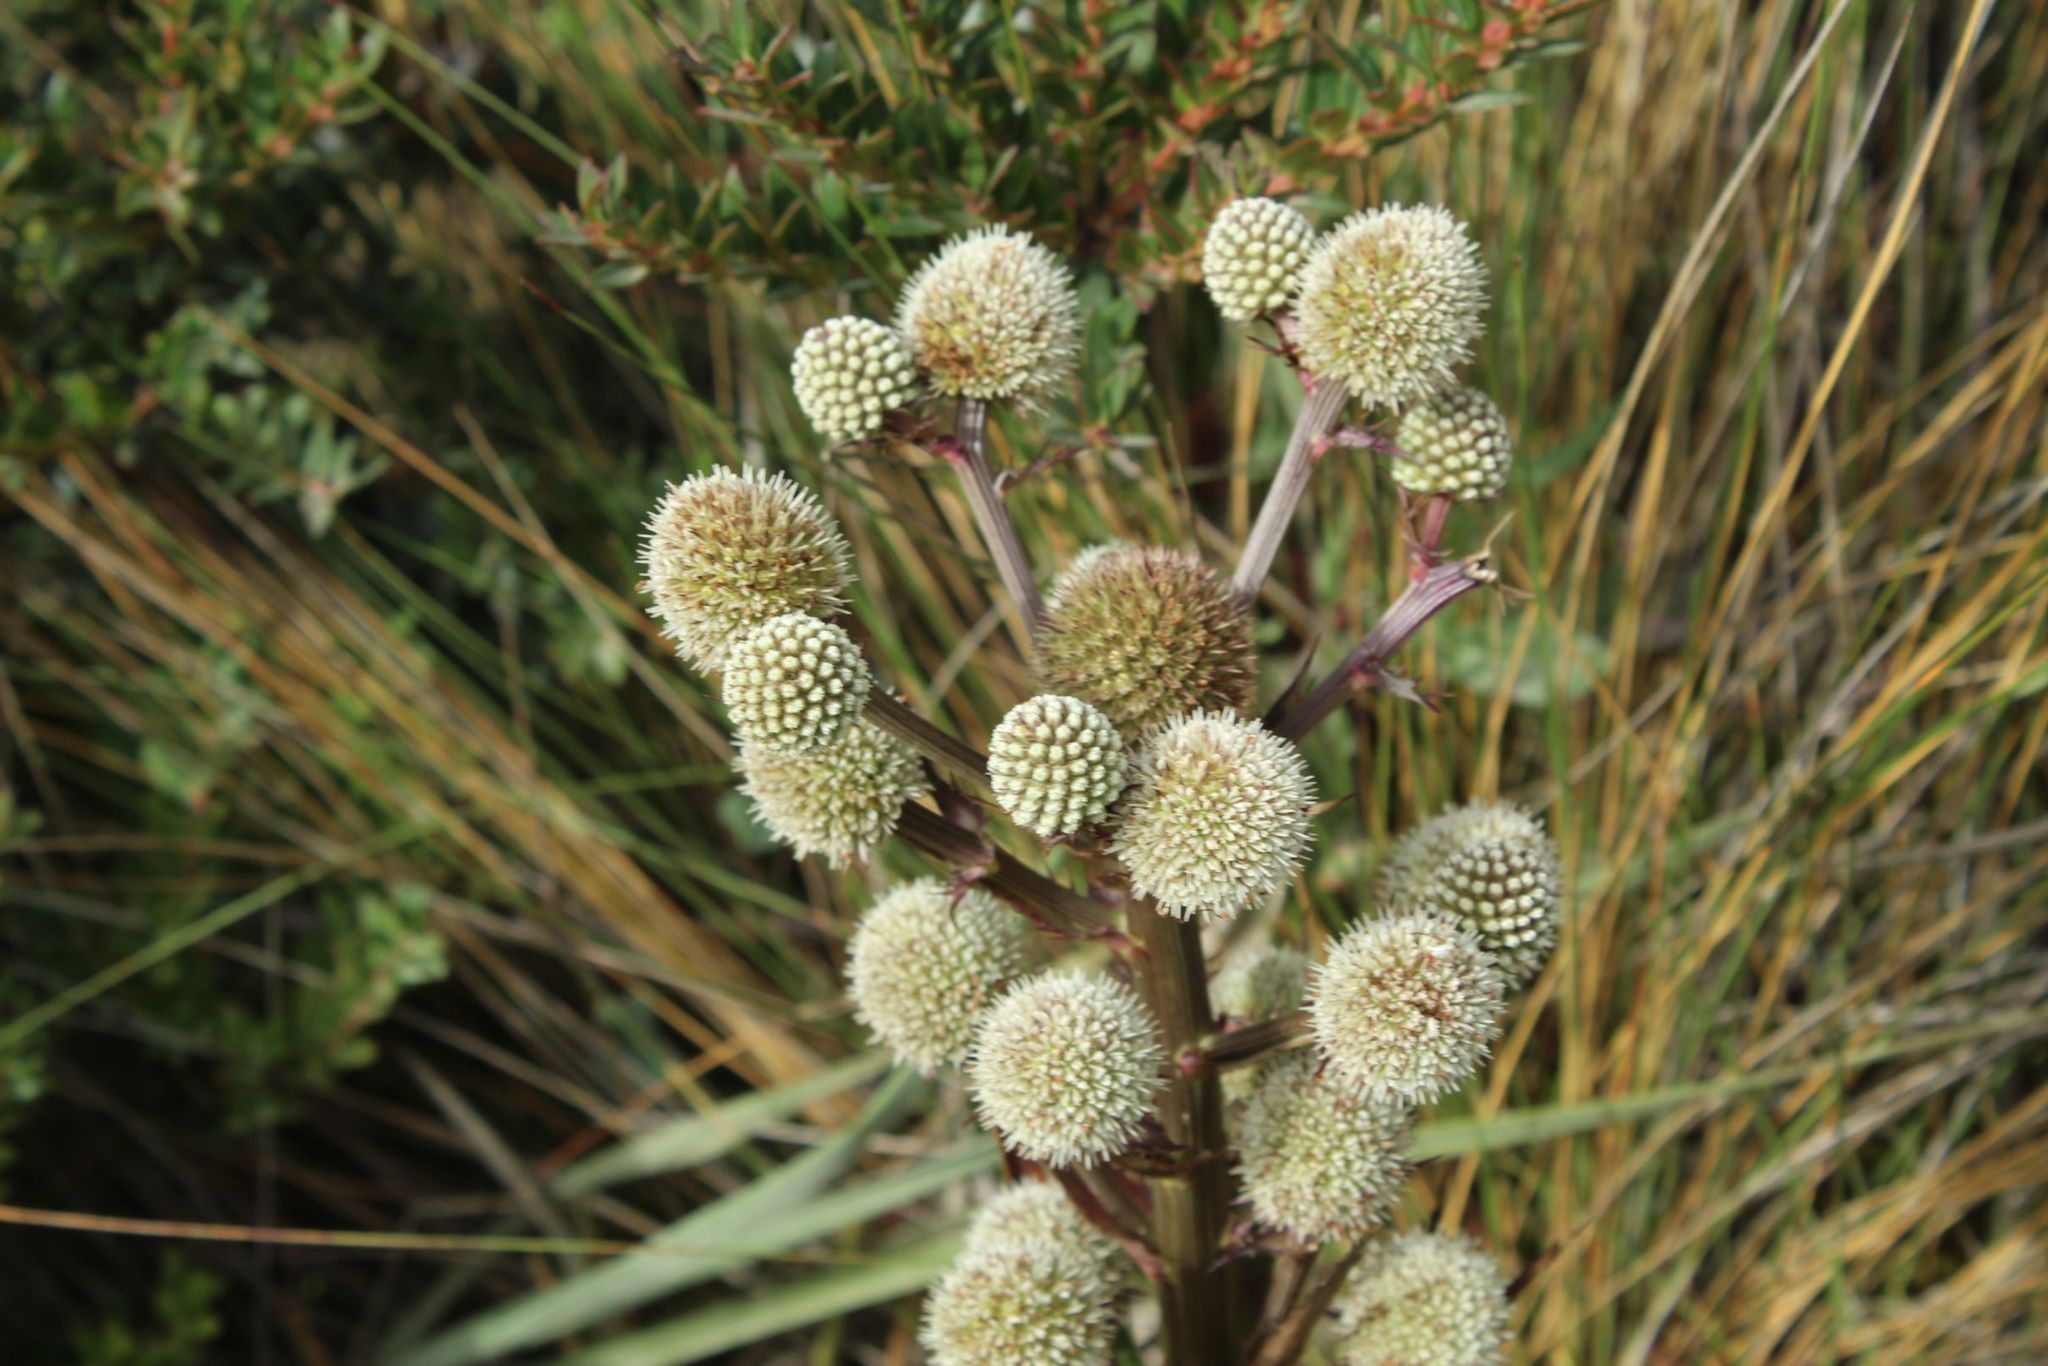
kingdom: Plantae
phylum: Tracheophyta
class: Magnoliopsida
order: Apiales
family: Apiaceae
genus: Eryngium
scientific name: Eryngium humboldtii
